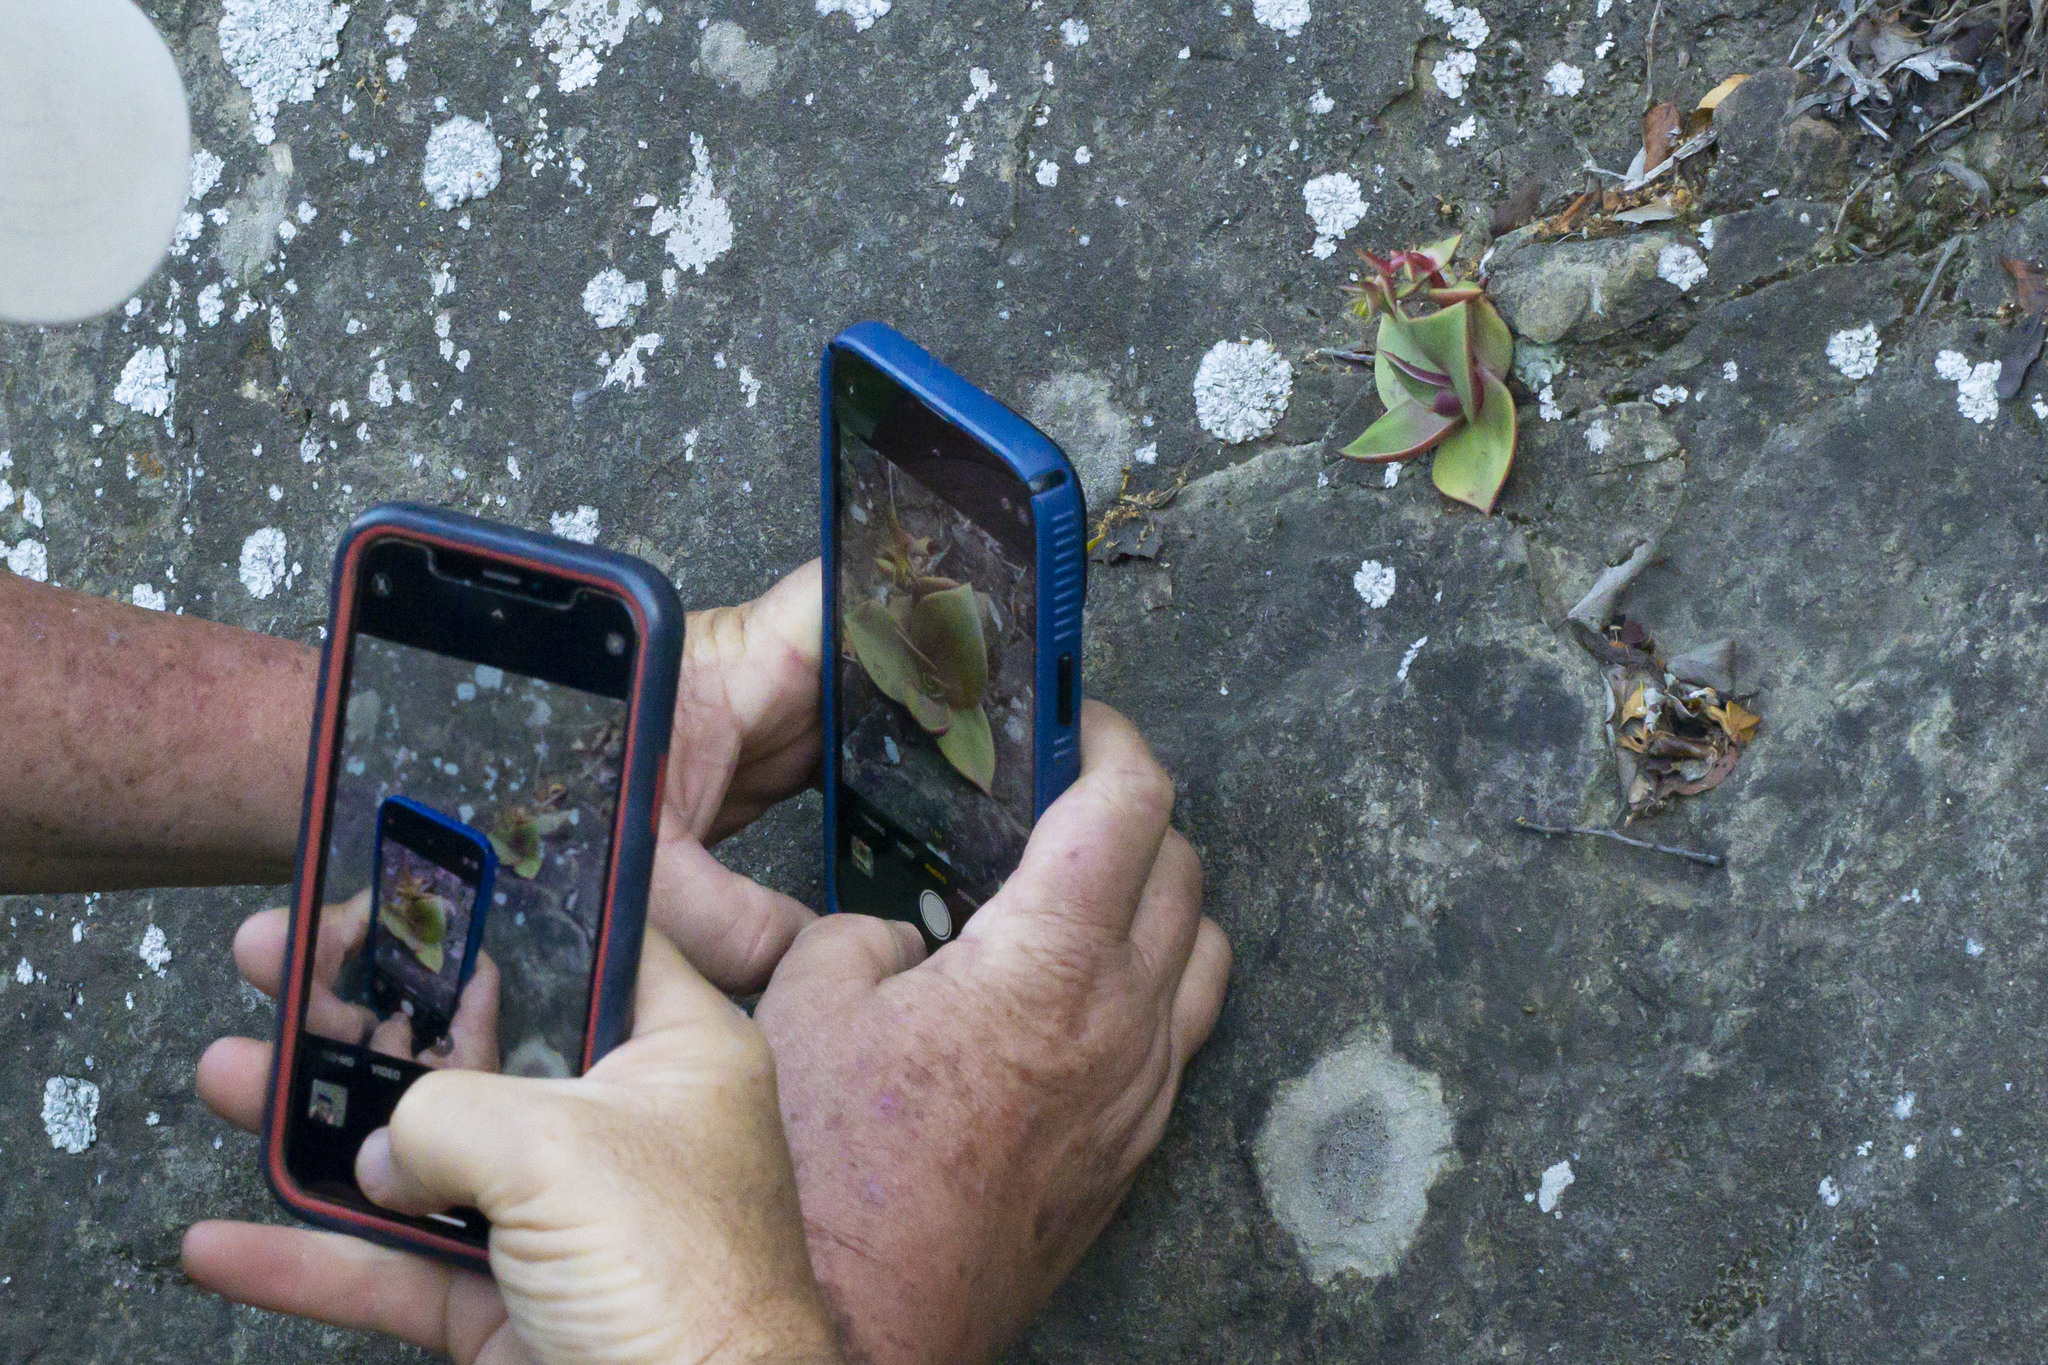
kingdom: Plantae
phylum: Tracheophyta
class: Magnoliopsida
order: Saxifragales
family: Crassulaceae
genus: Dudleya
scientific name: Dudleya cymosa
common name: Canyon dudleya
